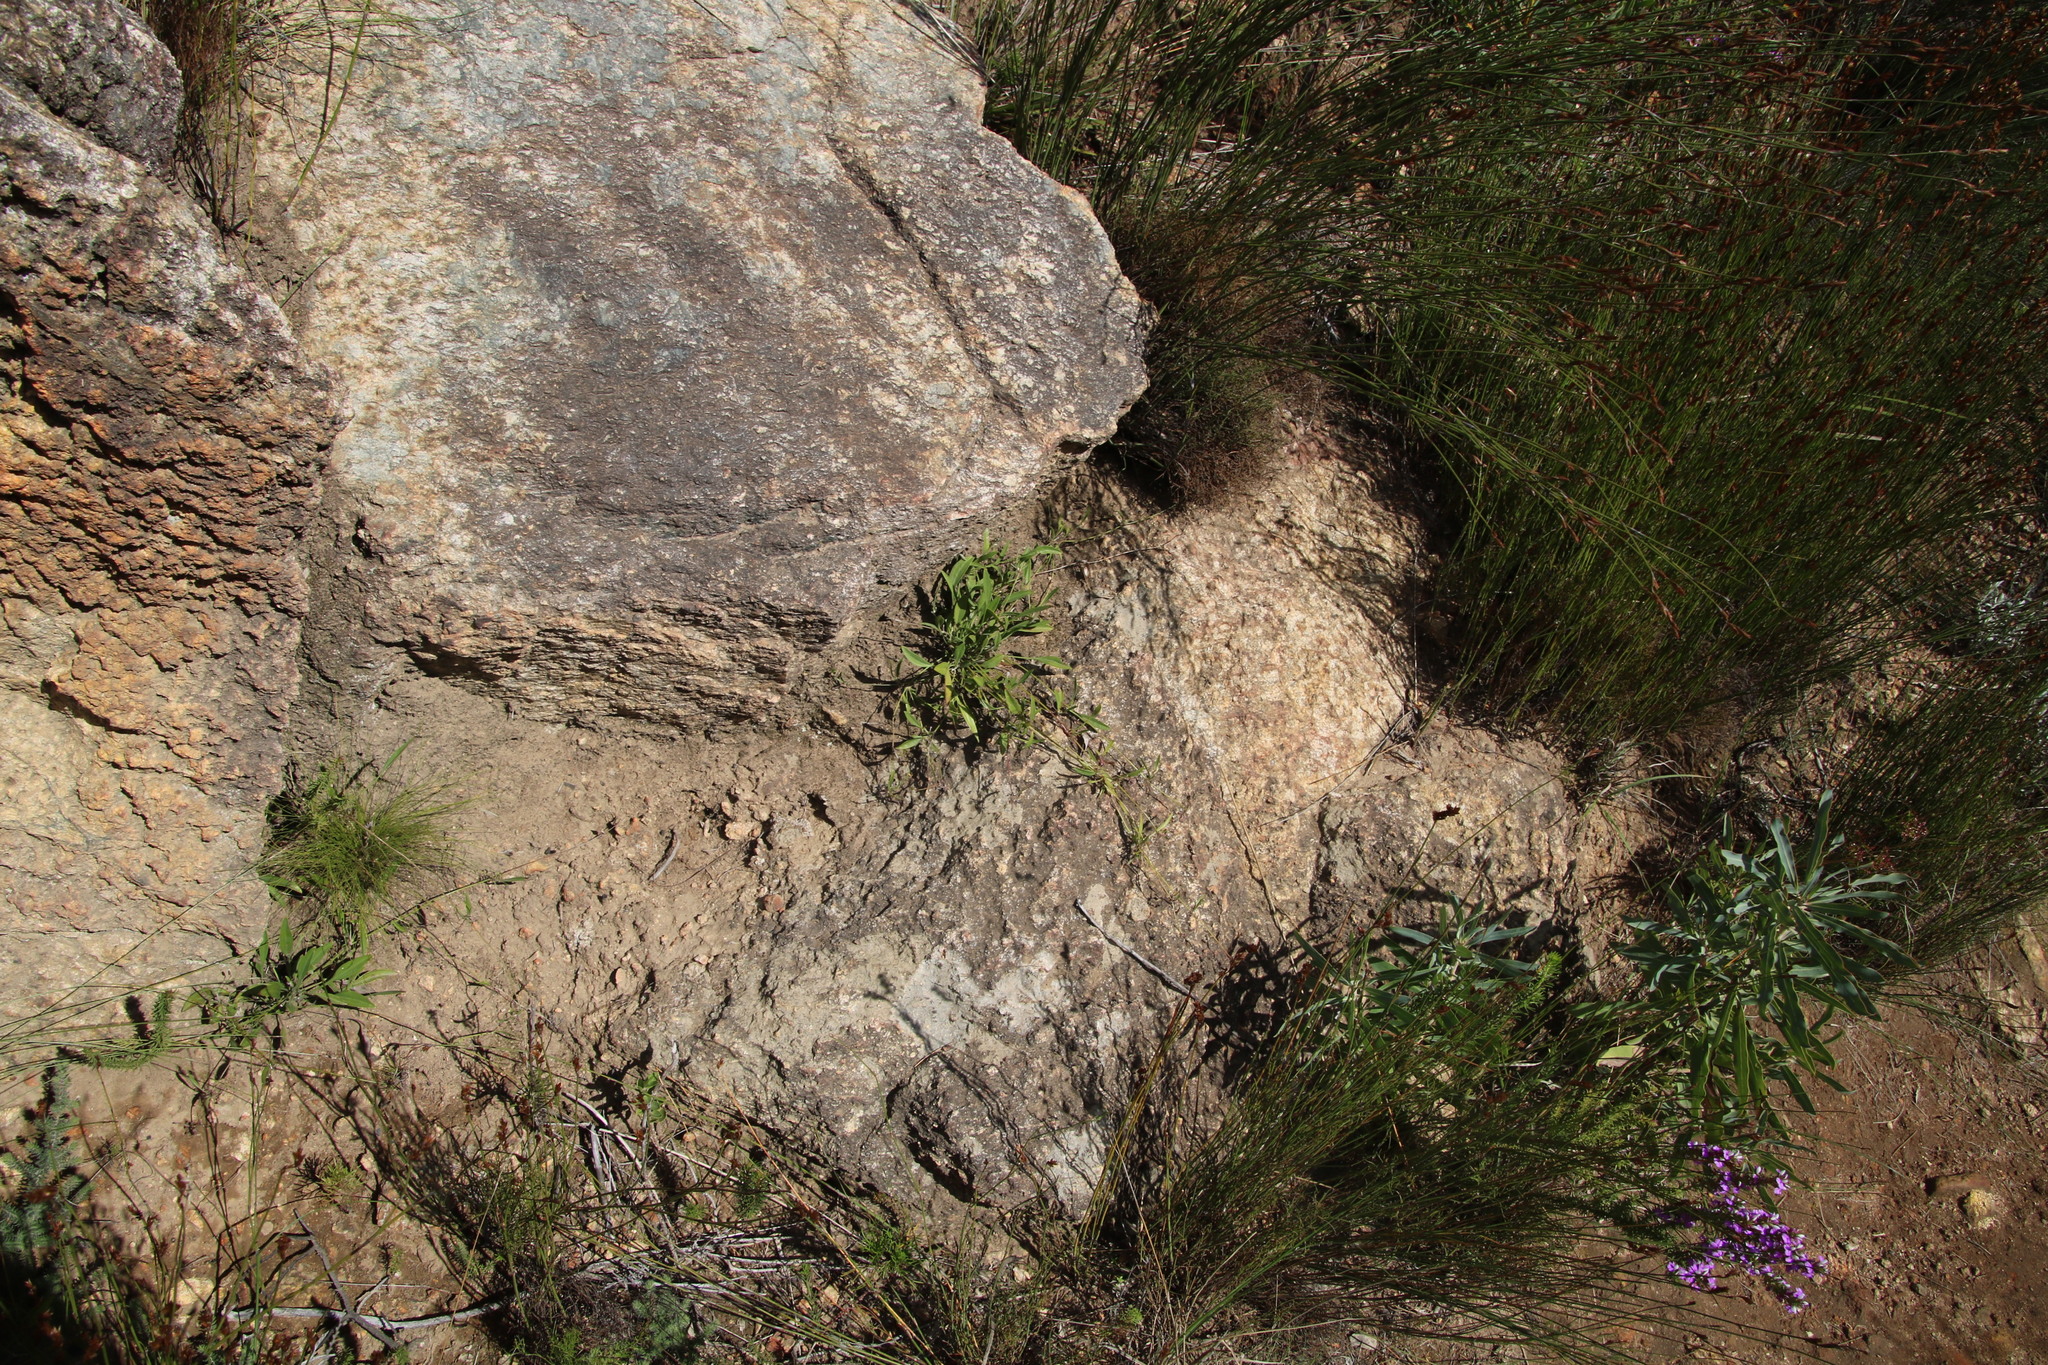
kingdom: Plantae
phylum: Tracheophyta
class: Magnoliopsida
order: Apiales
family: Apiaceae
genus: Centella
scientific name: Centella glabrata
